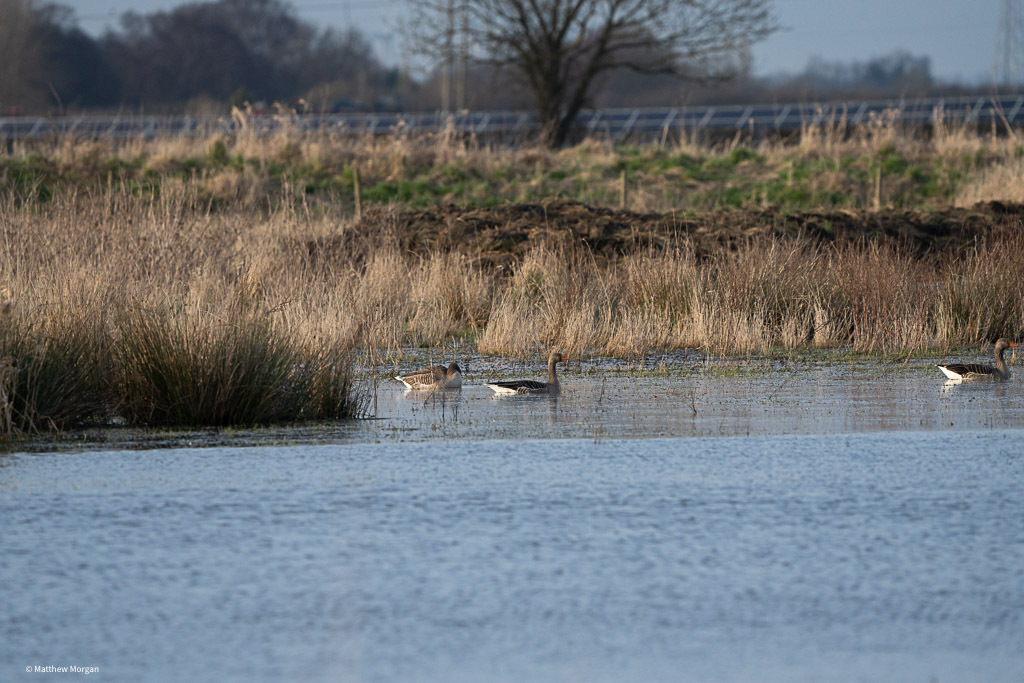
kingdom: Animalia
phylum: Chordata
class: Aves
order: Anseriformes
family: Anatidae
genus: Anser
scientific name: Anser anser
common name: Greylag goose
